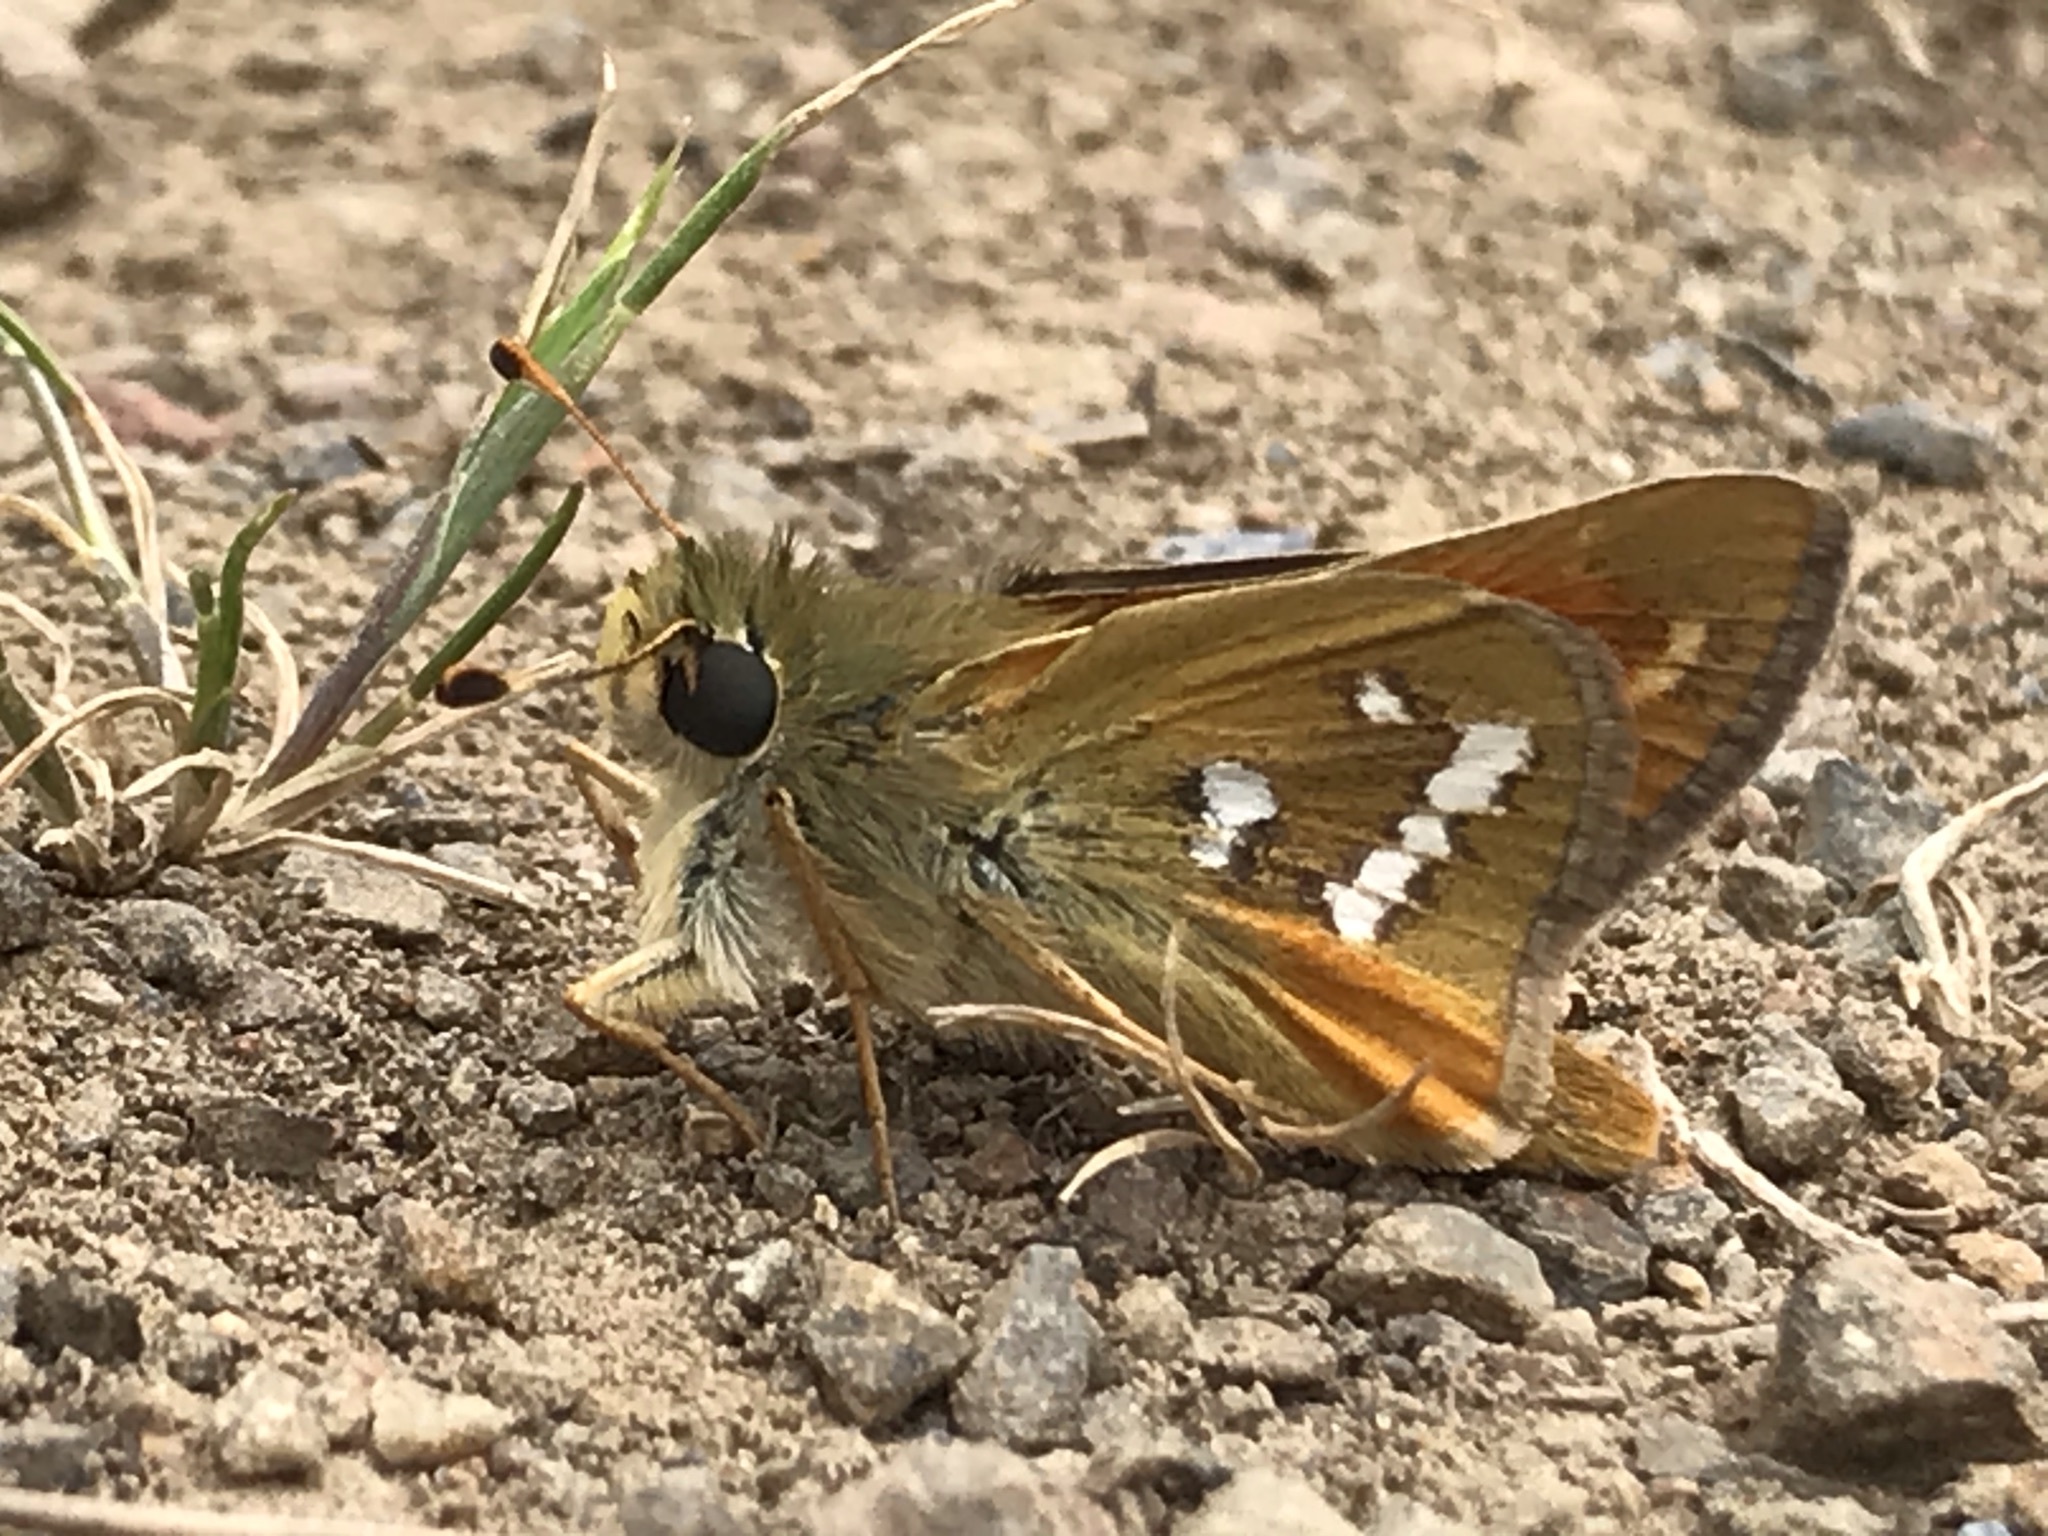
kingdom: Animalia
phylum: Arthropoda
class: Insecta
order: Lepidoptera
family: Hesperiidae
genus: Hesperia
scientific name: Hesperia columbia
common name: Columbian skipper
